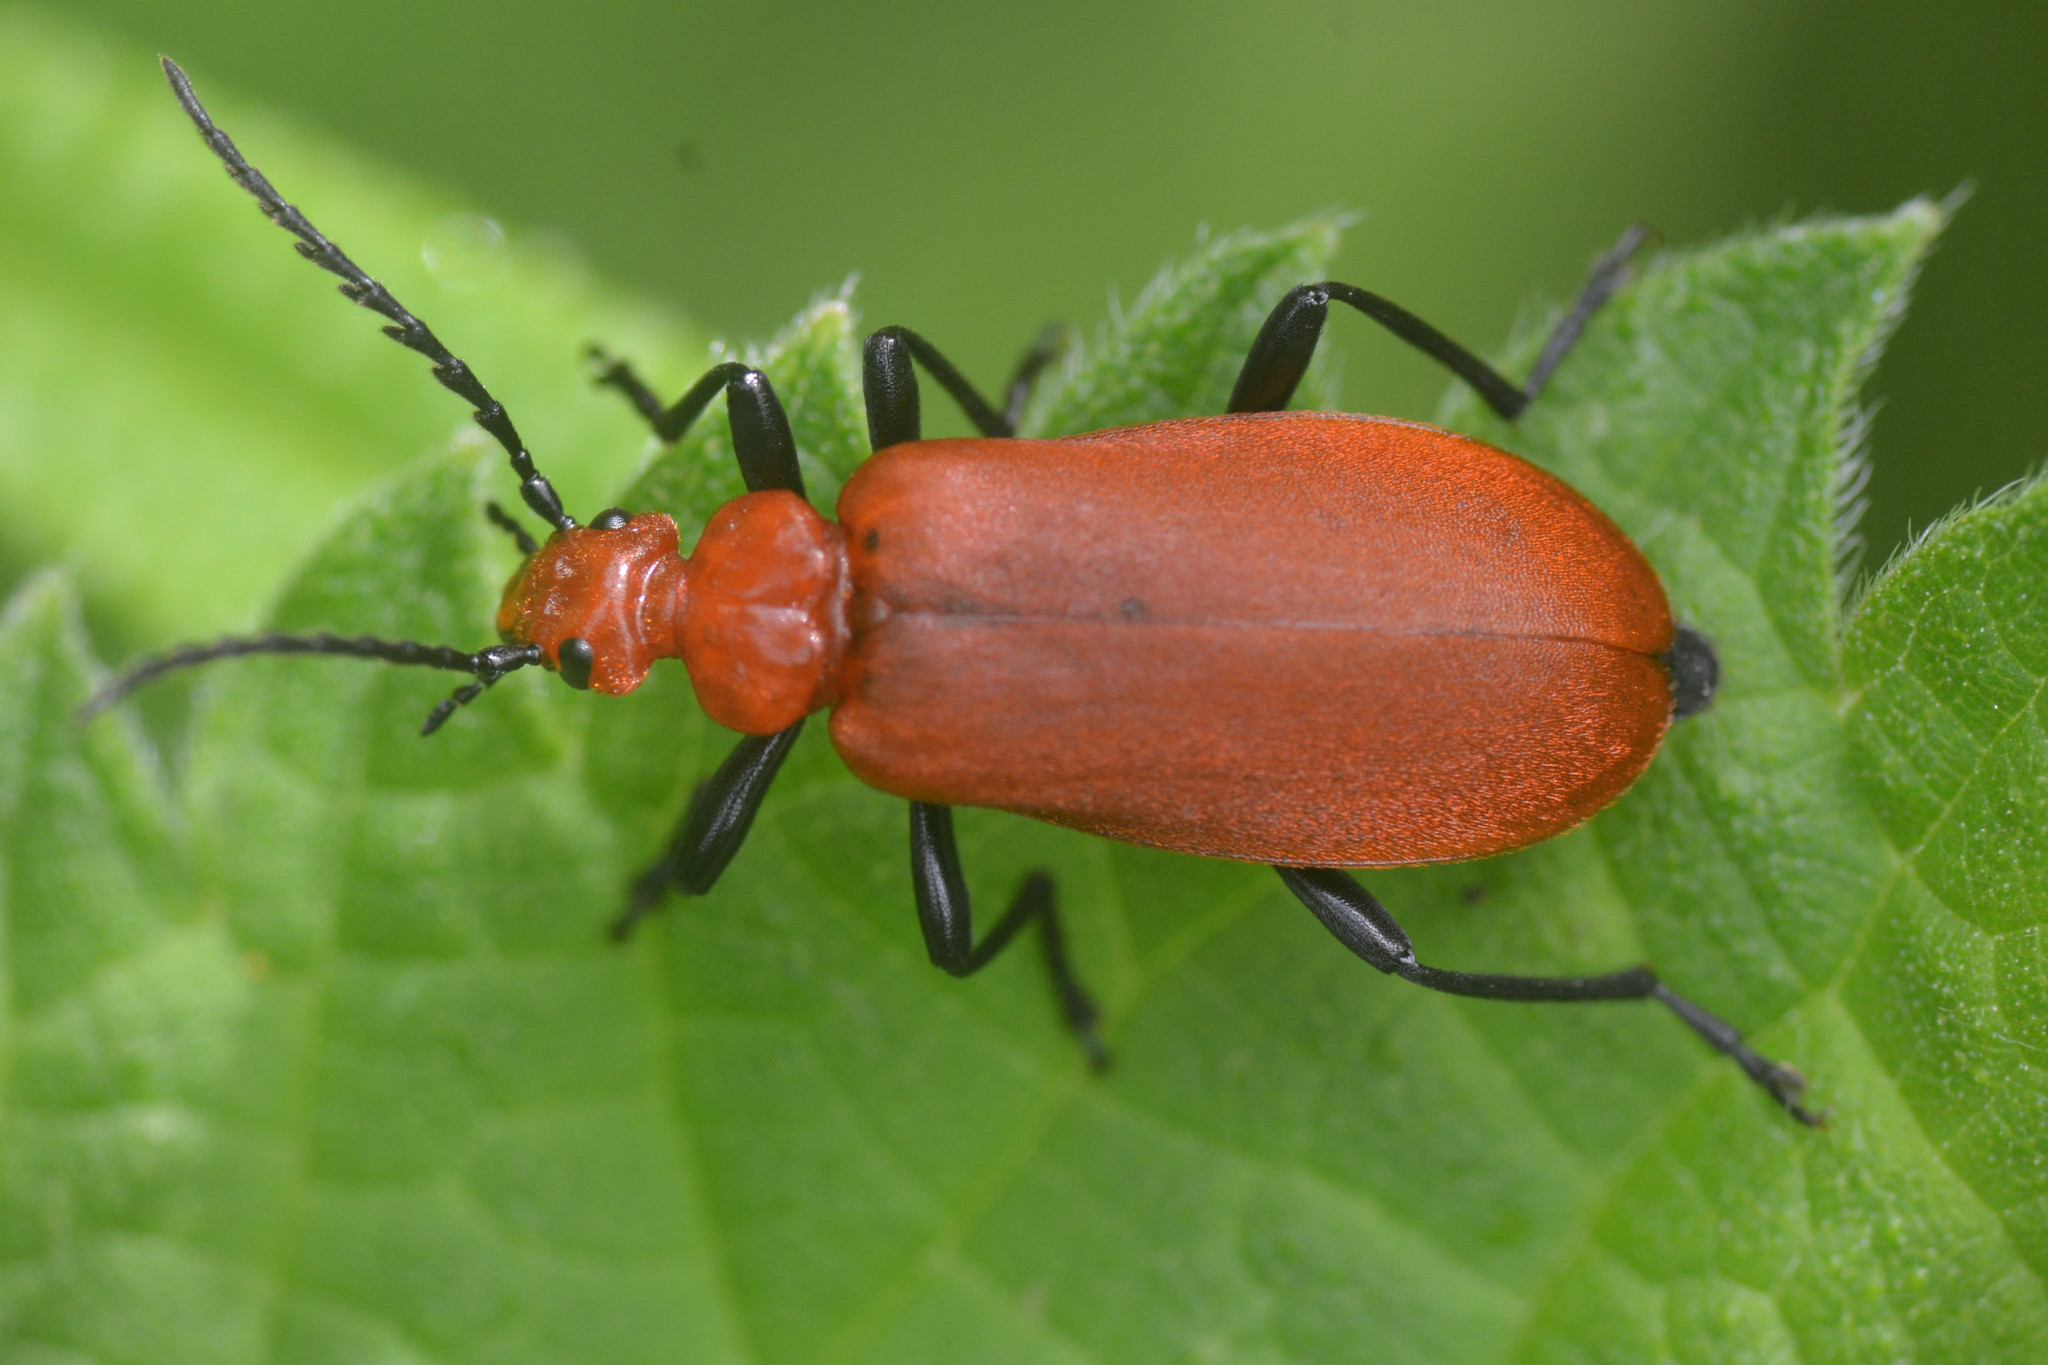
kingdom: Animalia
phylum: Arthropoda
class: Insecta
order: Coleoptera
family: Pyrochroidae
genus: Pyrochroa
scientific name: Pyrochroa serraticornis
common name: Red-headed cardinal beetle
